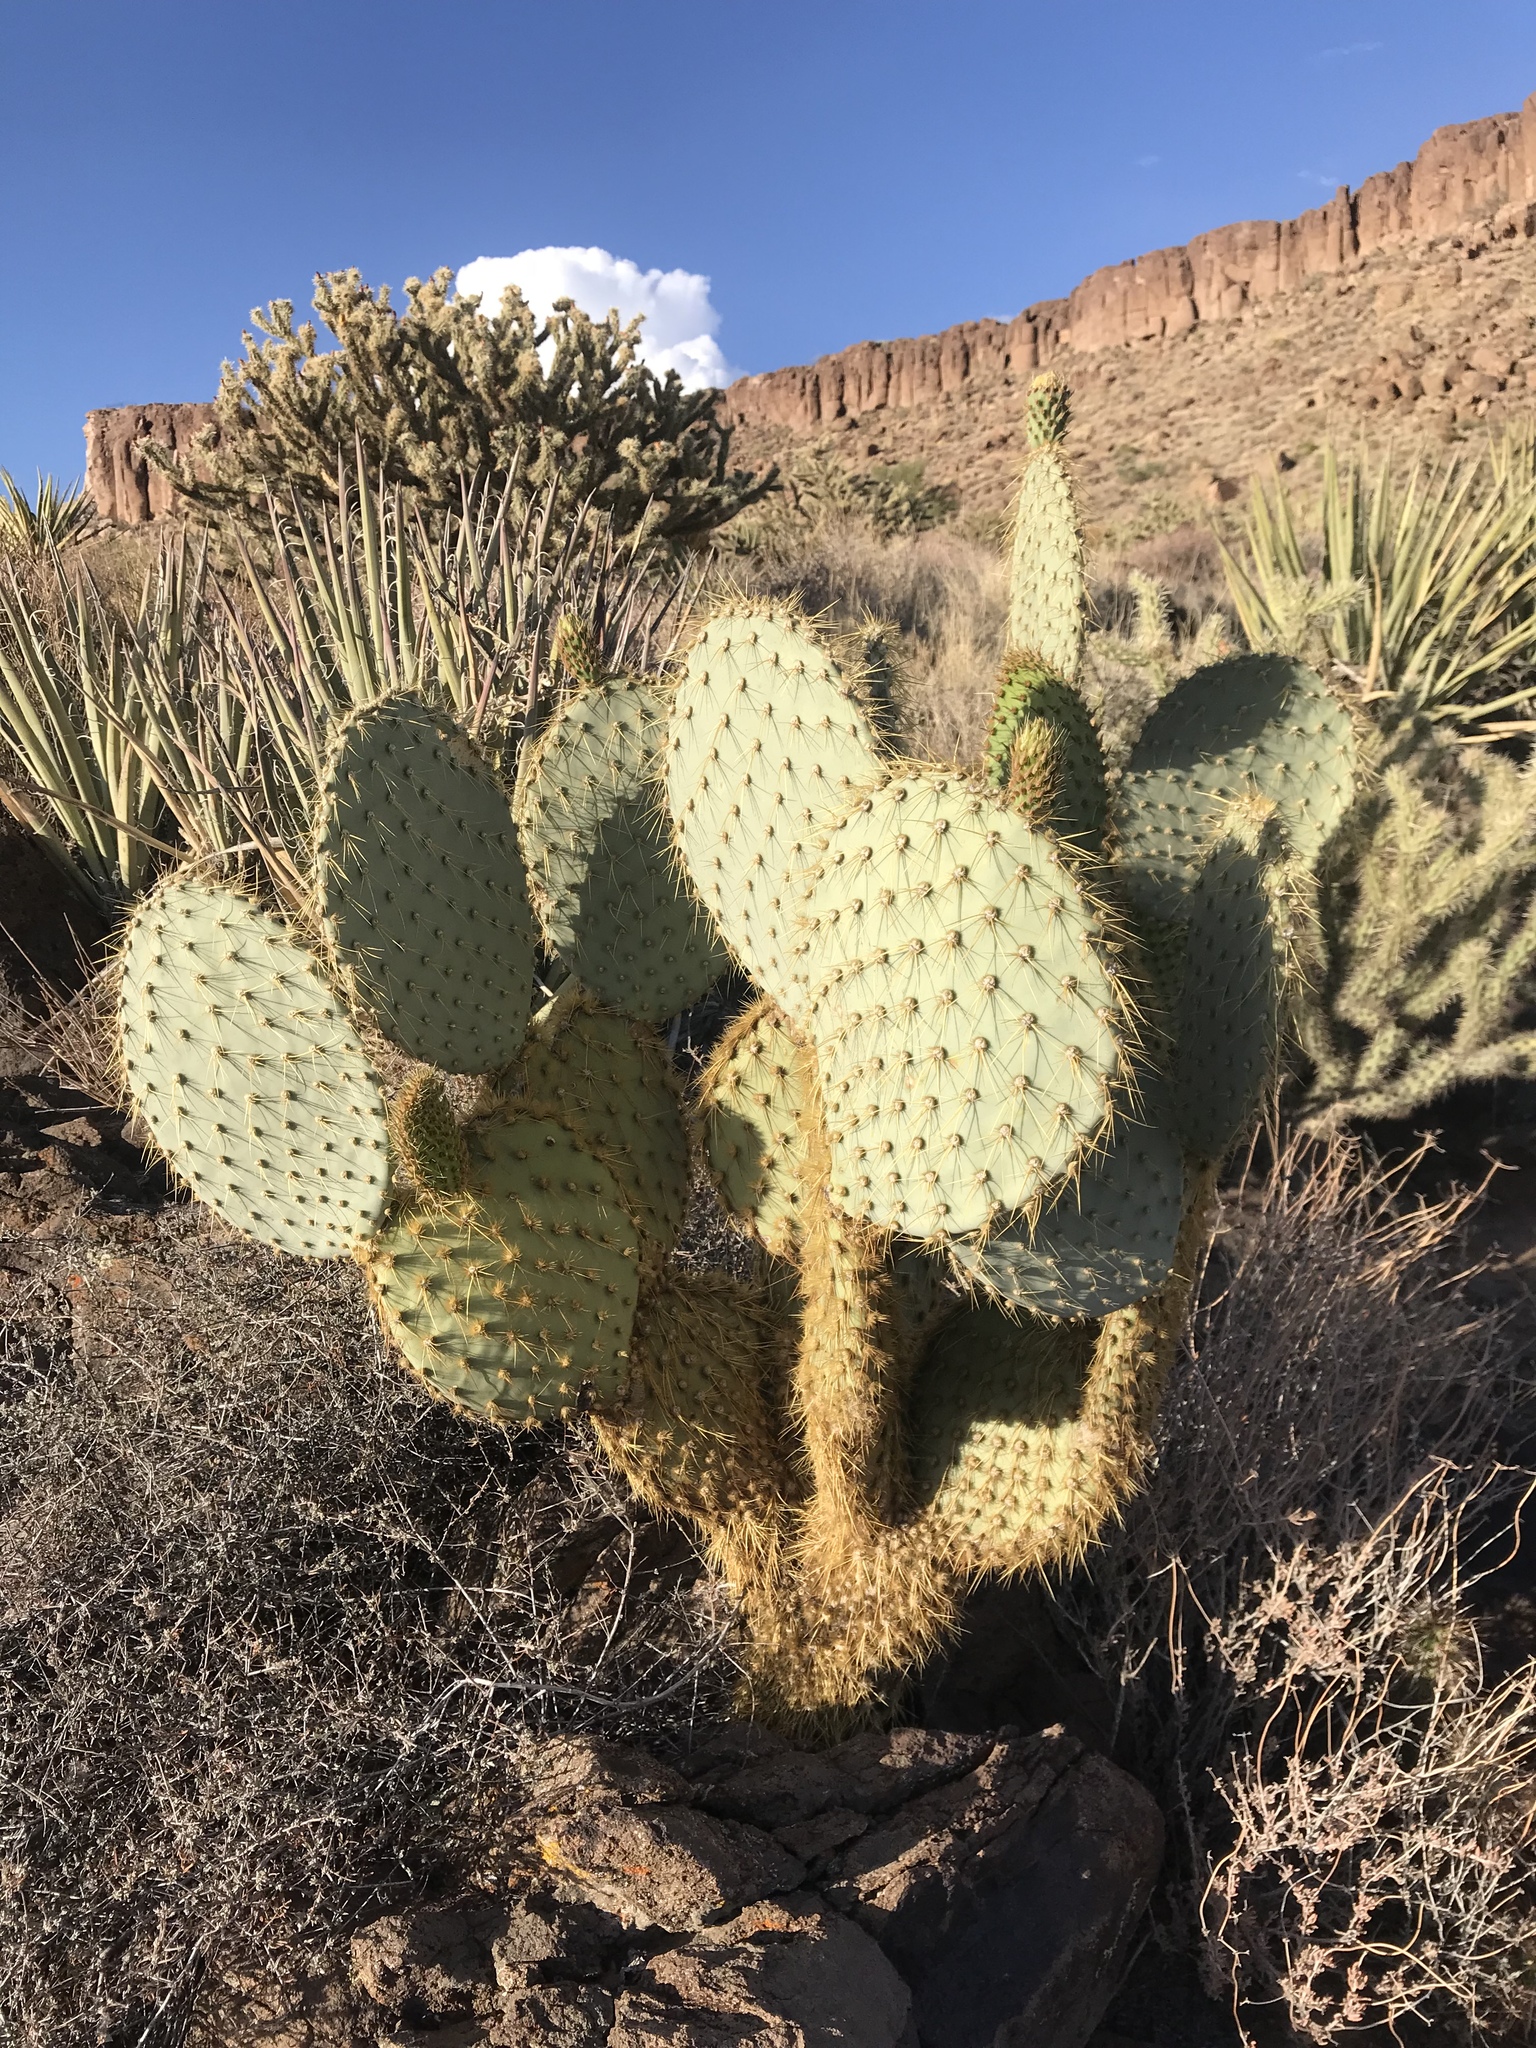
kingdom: Plantae
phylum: Tracheophyta
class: Magnoliopsida
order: Caryophyllales
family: Cactaceae
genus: Opuntia
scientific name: Opuntia chlorotica
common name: Dollar-joint prickly-pear
